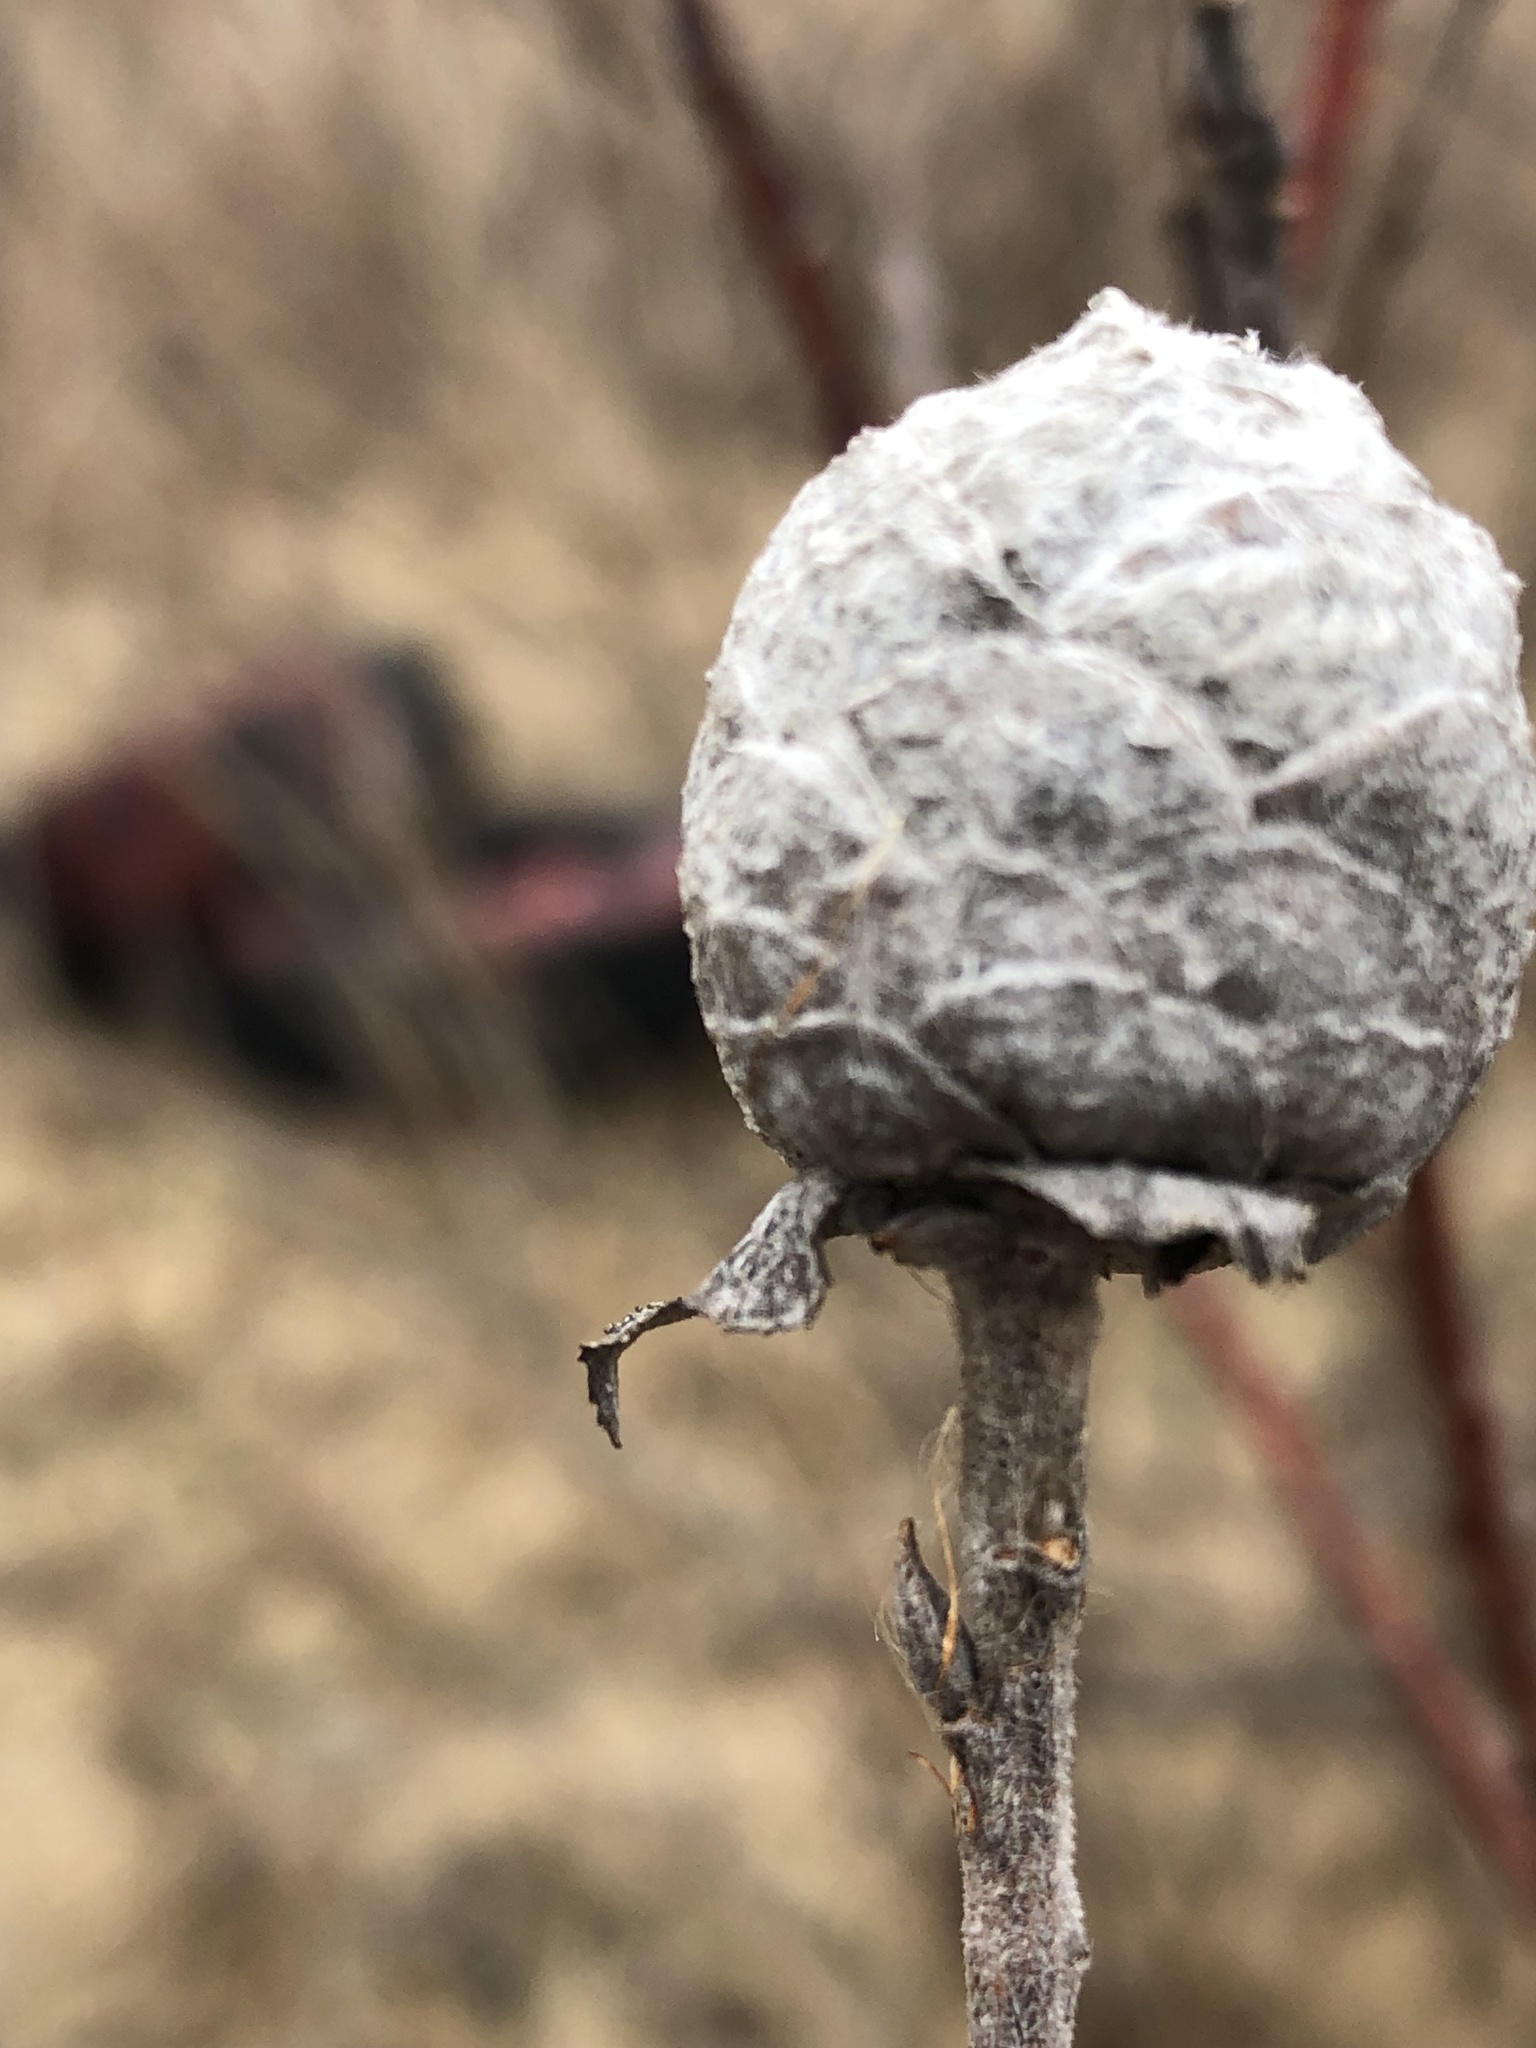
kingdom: Animalia
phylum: Arthropoda
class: Insecta
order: Diptera
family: Cecidomyiidae
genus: Rabdophaga
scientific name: Rabdophaga strobiloides
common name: Willow pinecone gall midge
